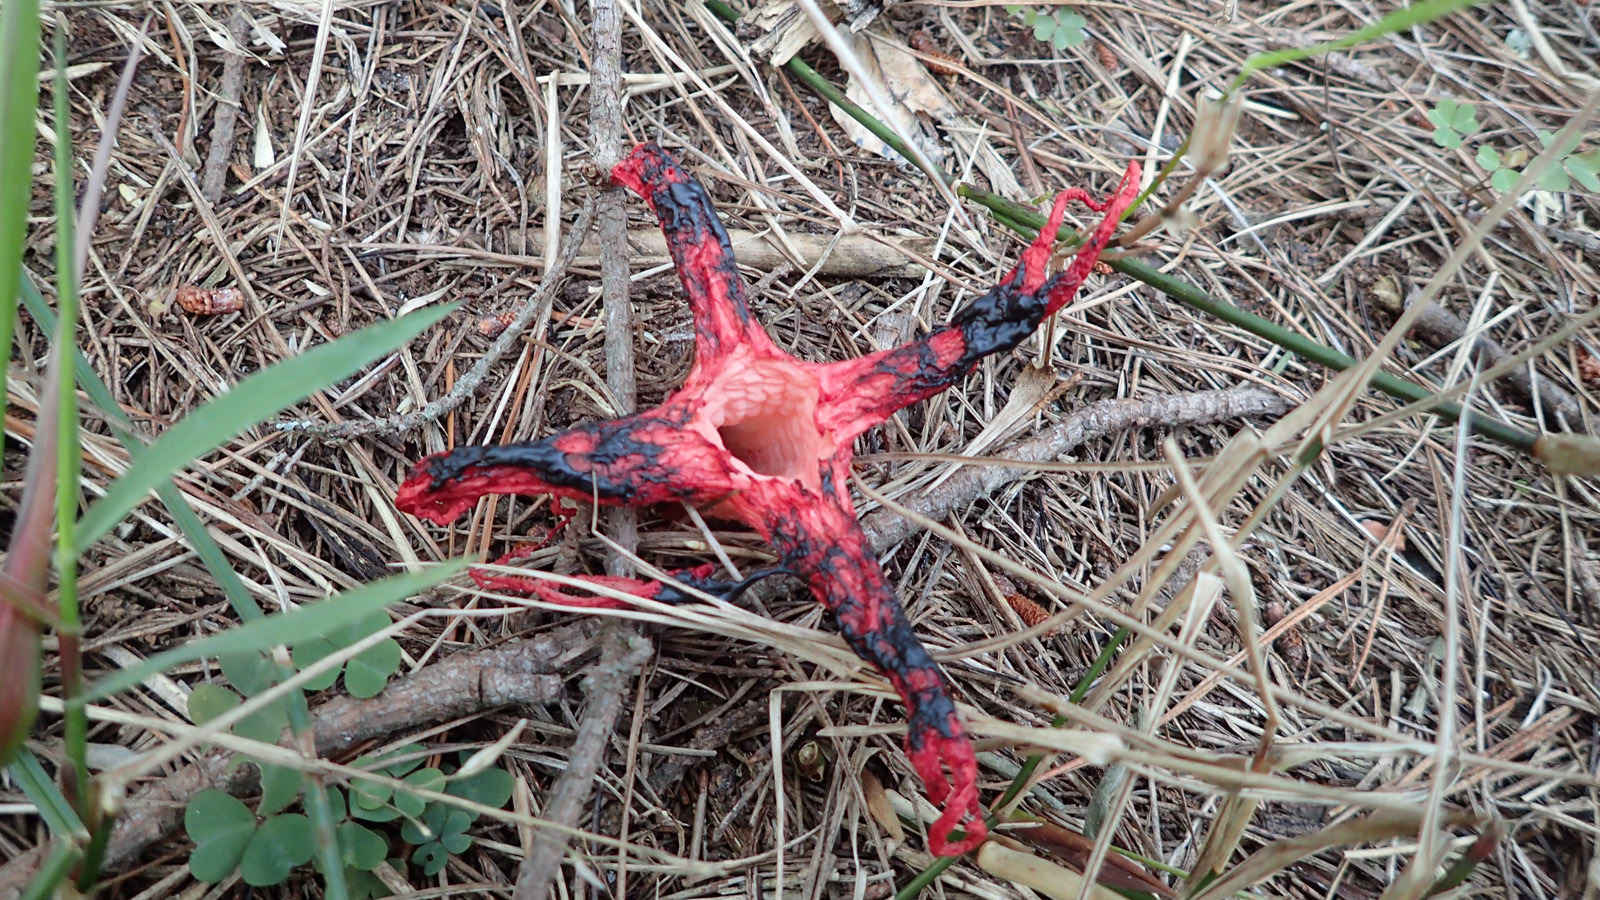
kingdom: Fungi
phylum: Basidiomycota
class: Agaricomycetes
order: Phallales
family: Phallaceae
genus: Clathrus
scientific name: Clathrus archeri
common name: Devil's fingers
